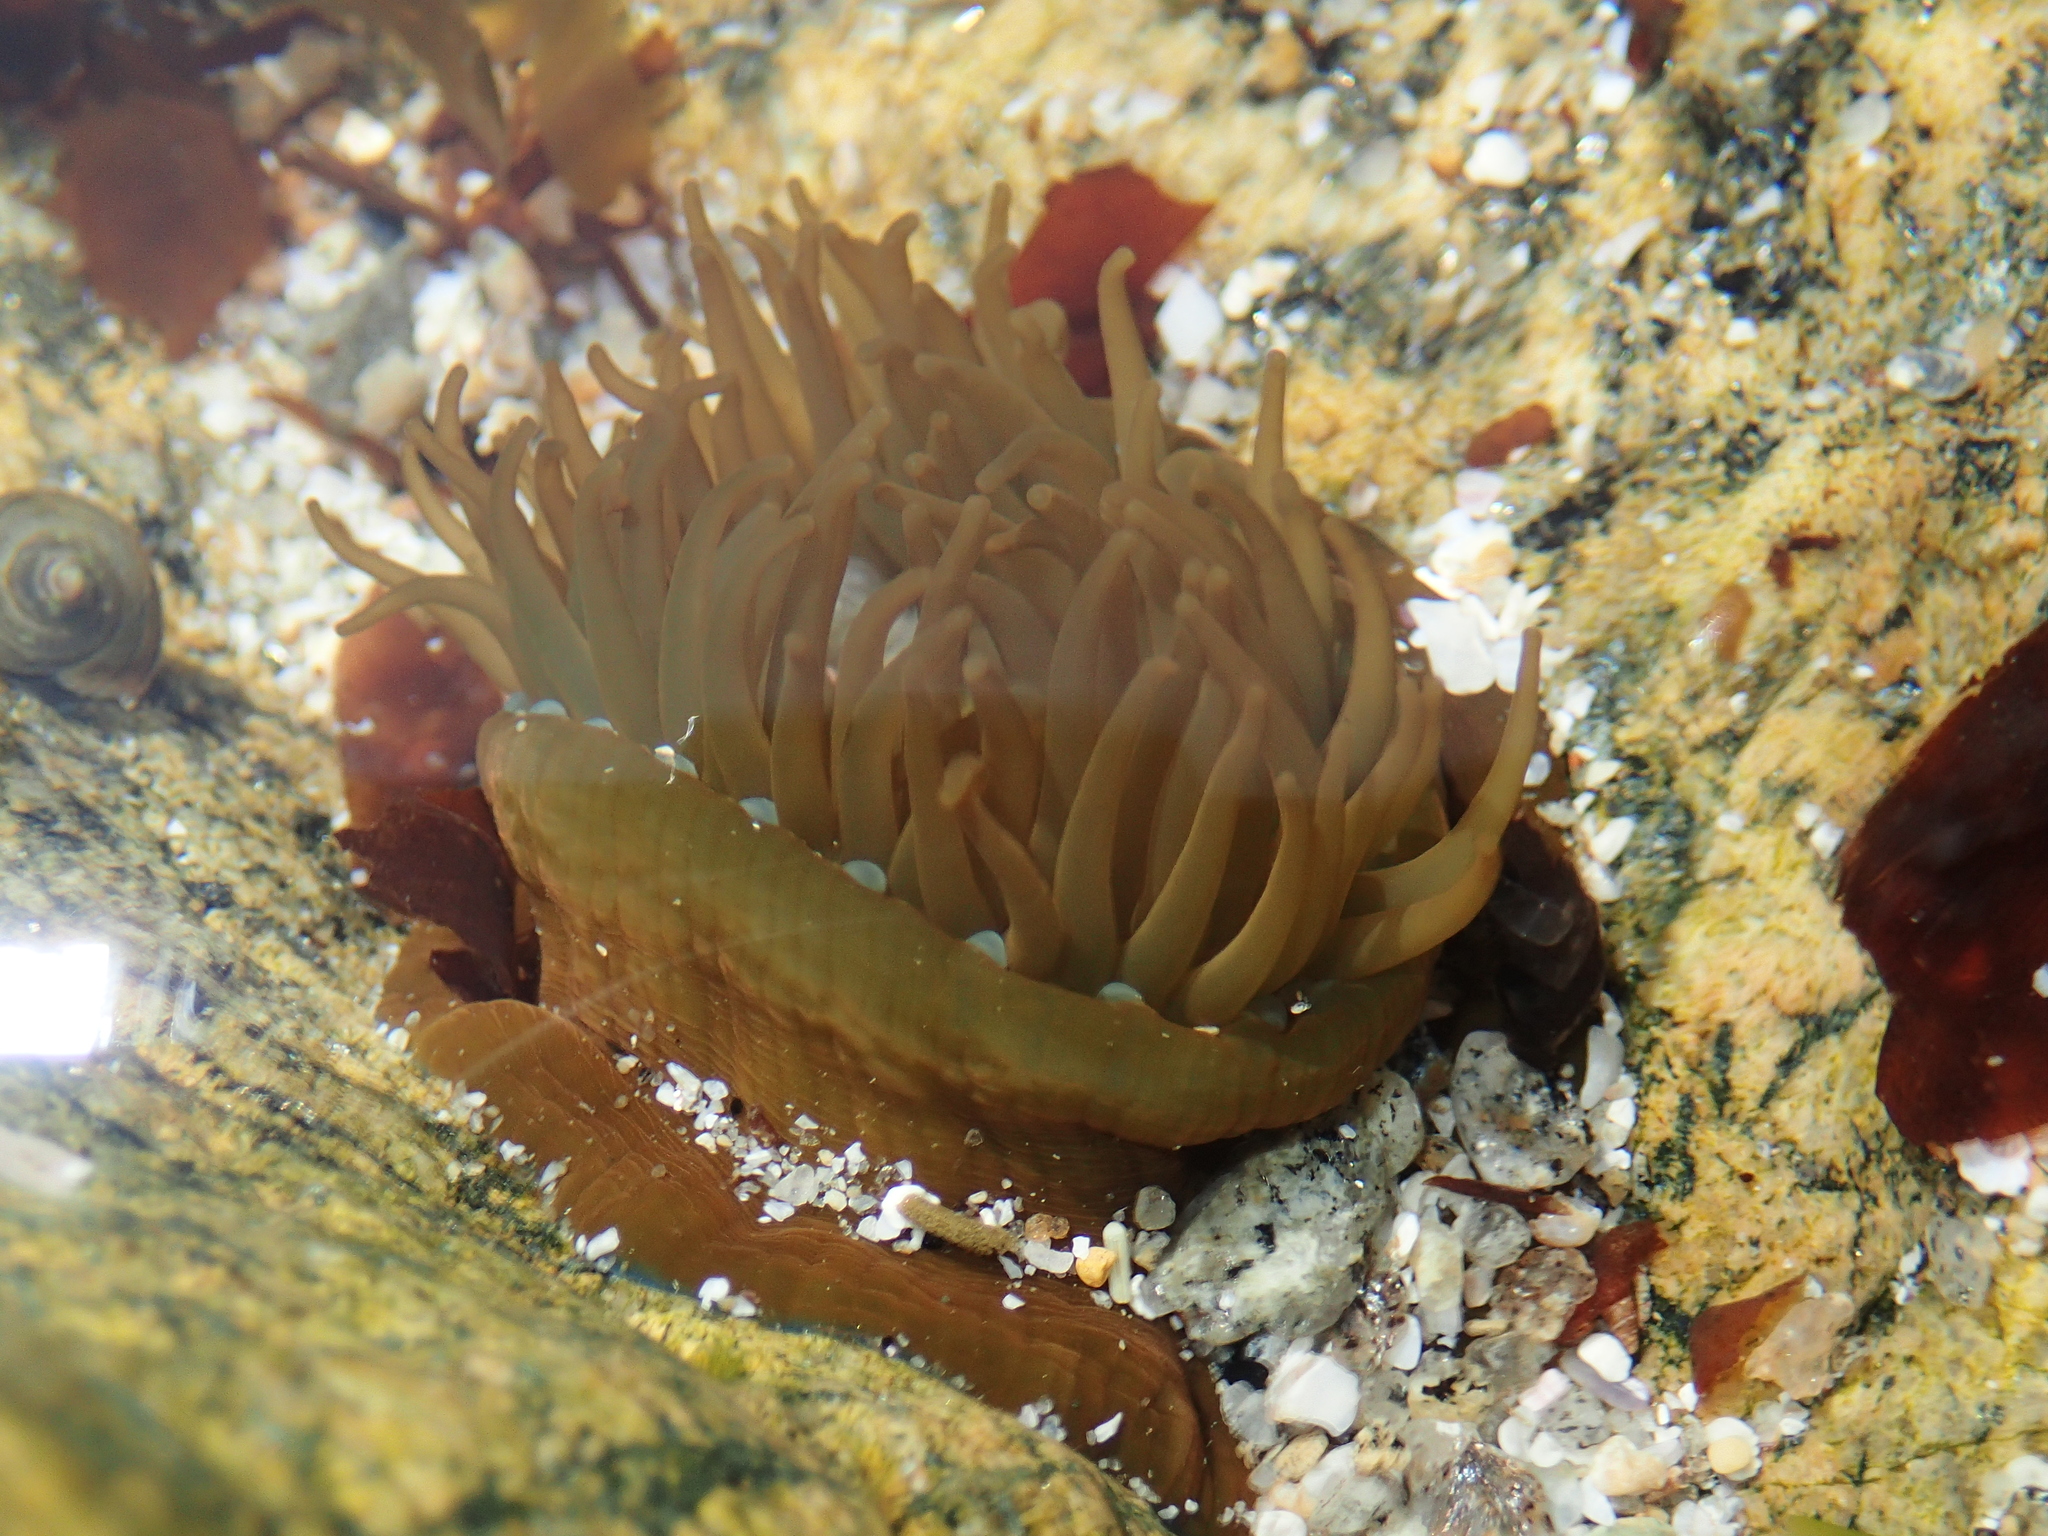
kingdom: Animalia
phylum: Cnidaria
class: Anthozoa
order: Actiniaria
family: Actiniidae
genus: Actinia
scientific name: Actinia equina
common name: Beadlet anemone
